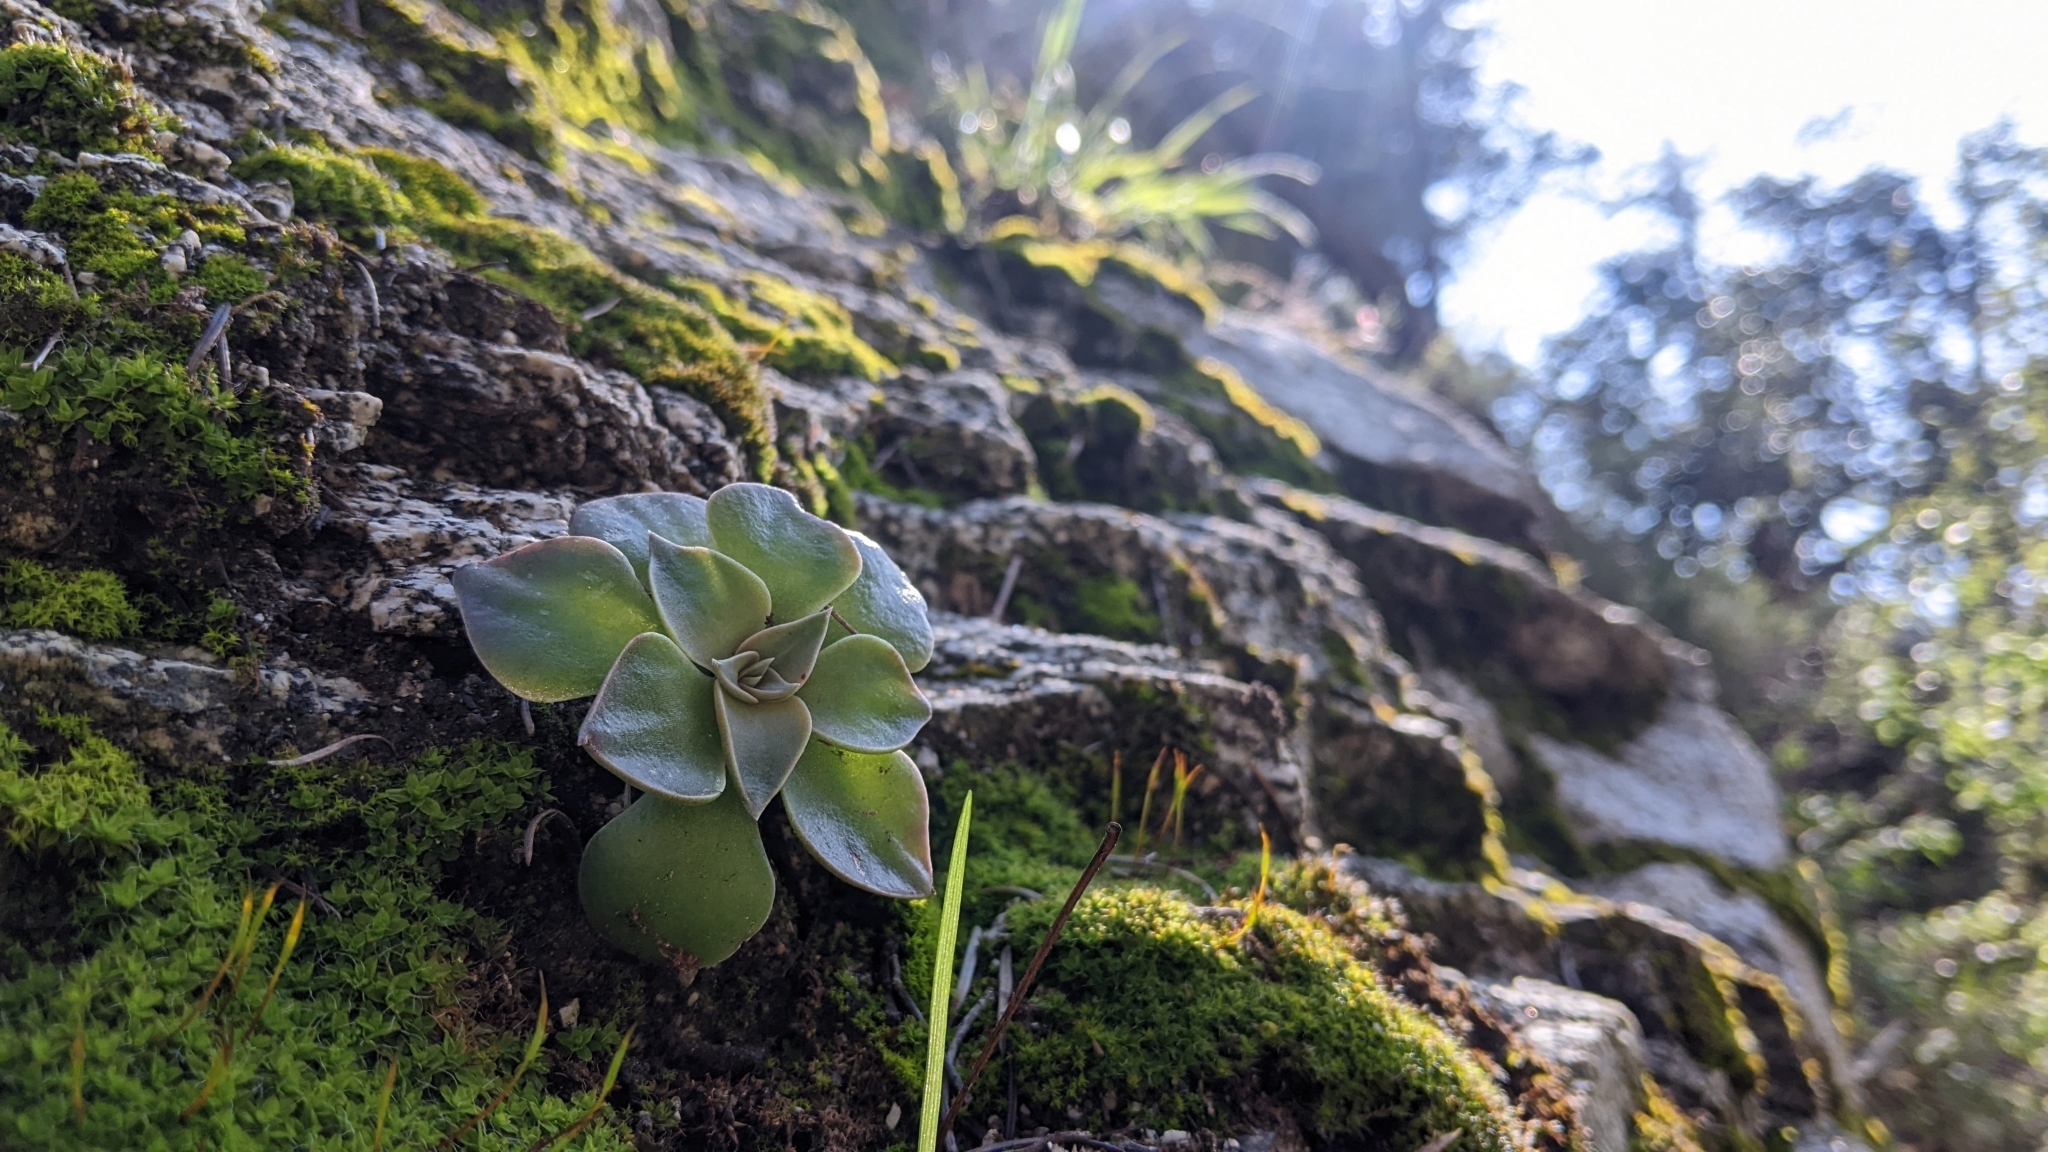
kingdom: Plantae
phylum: Tracheophyta
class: Magnoliopsida
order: Saxifragales
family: Crassulaceae
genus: Dudleya
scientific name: Dudleya cymosa
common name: Canyon dudleya
